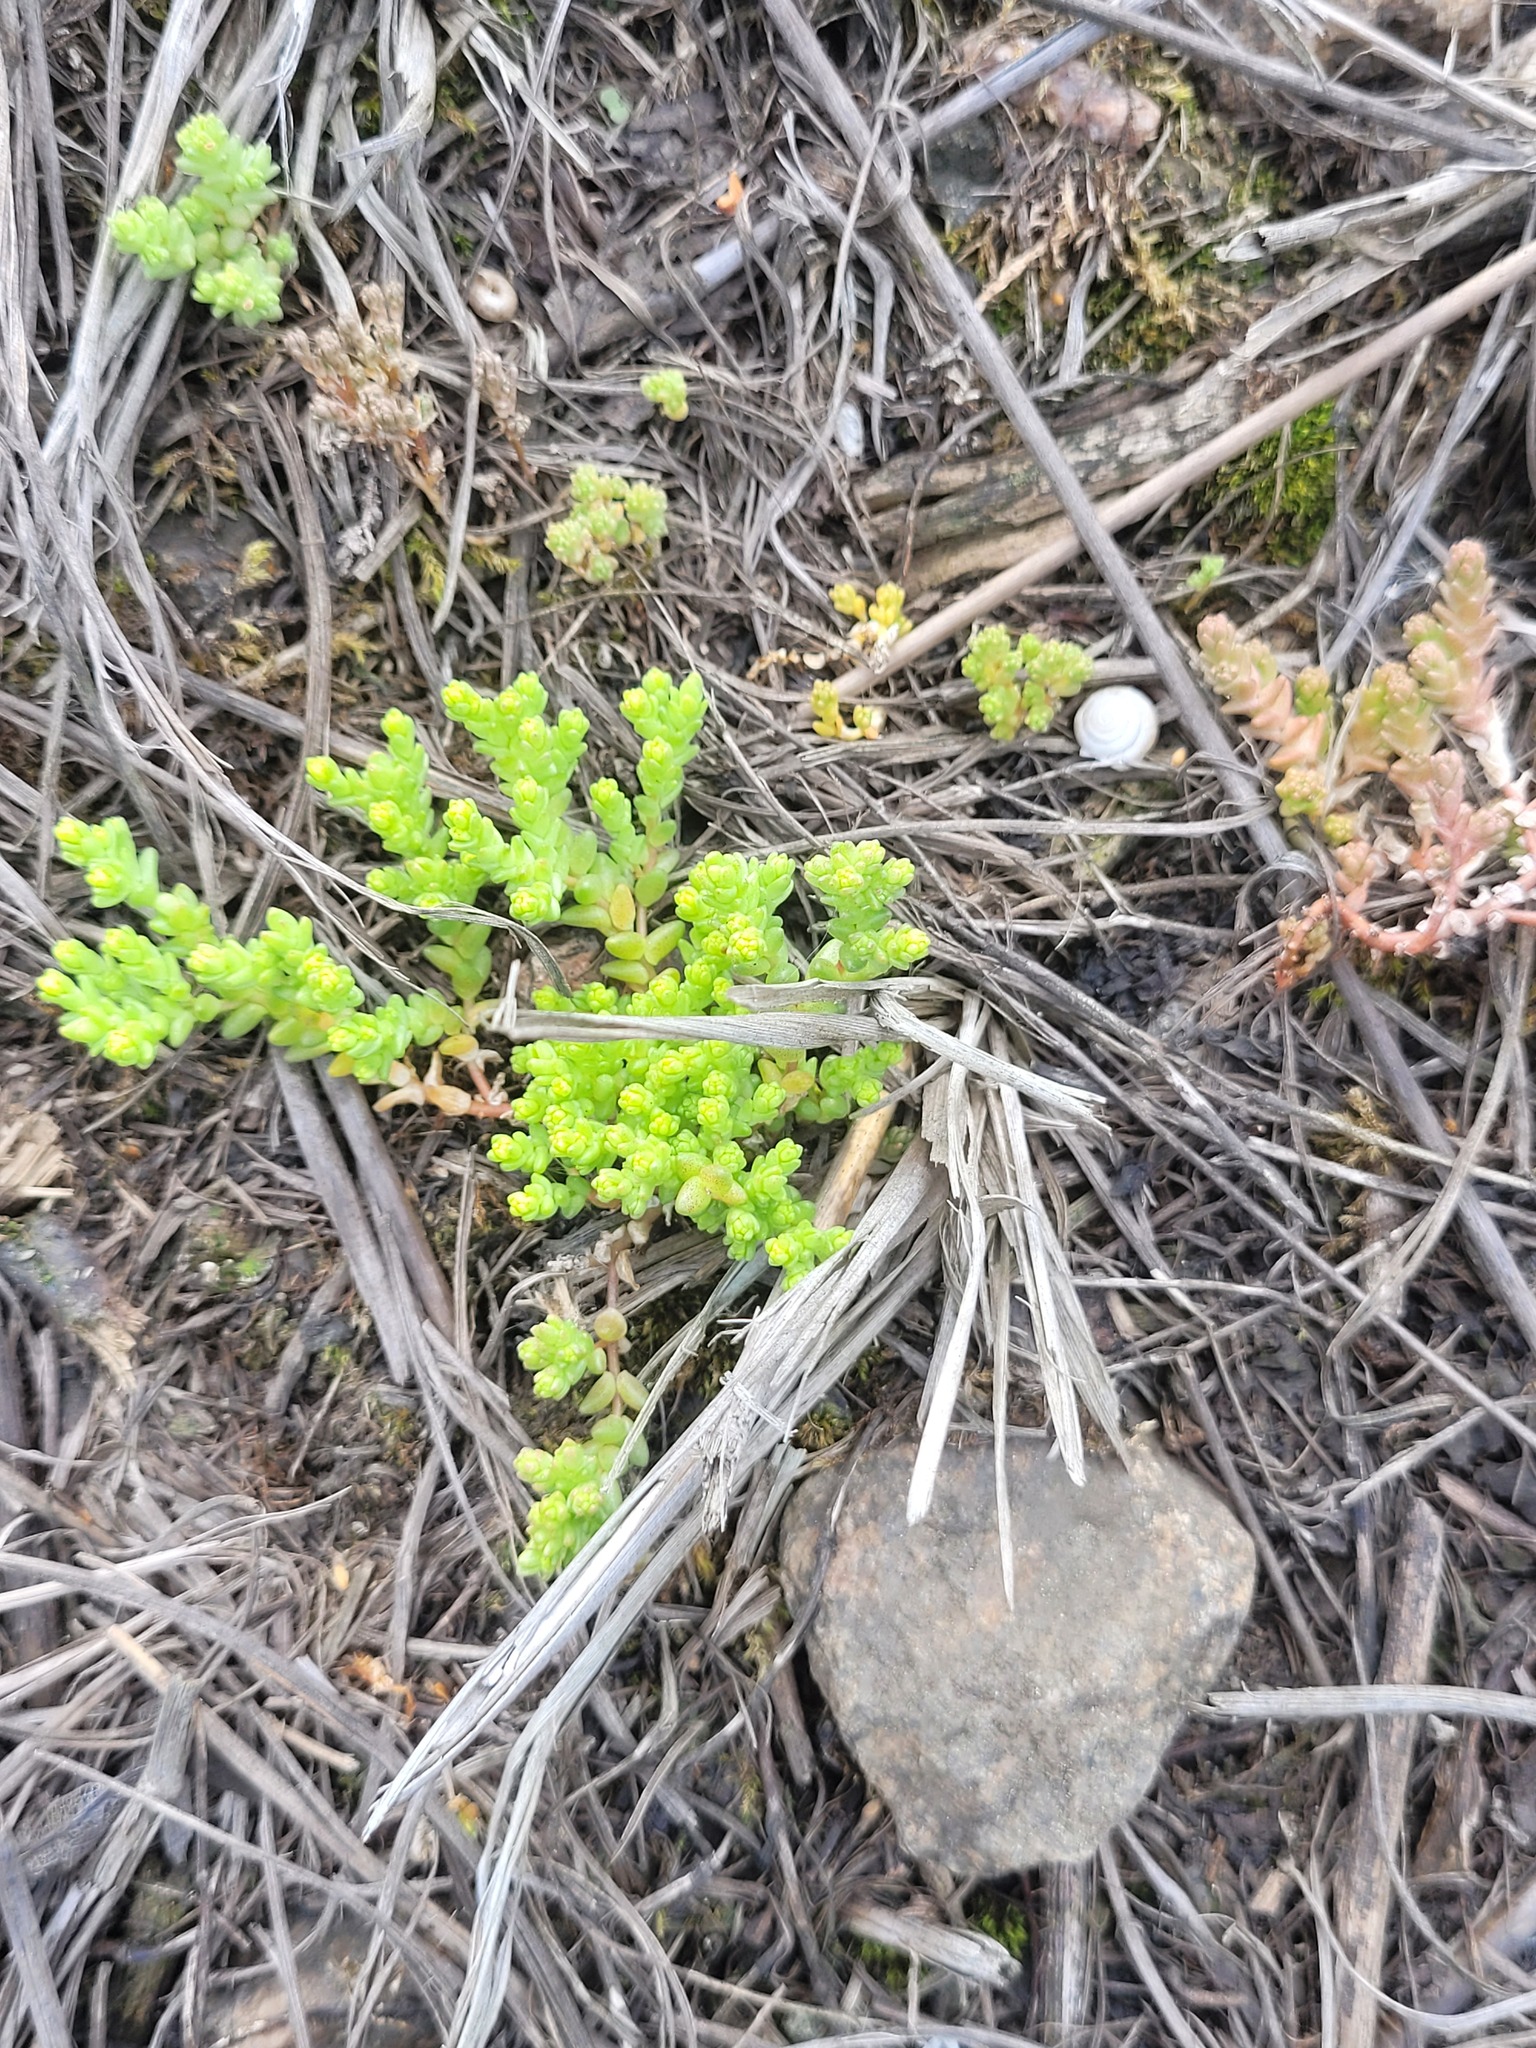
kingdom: Plantae
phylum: Tracheophyta
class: Magnoliopsida
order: Saxifragales
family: Crassulaceae
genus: Sedum
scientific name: Sedum acre
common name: Biting stonecrop
